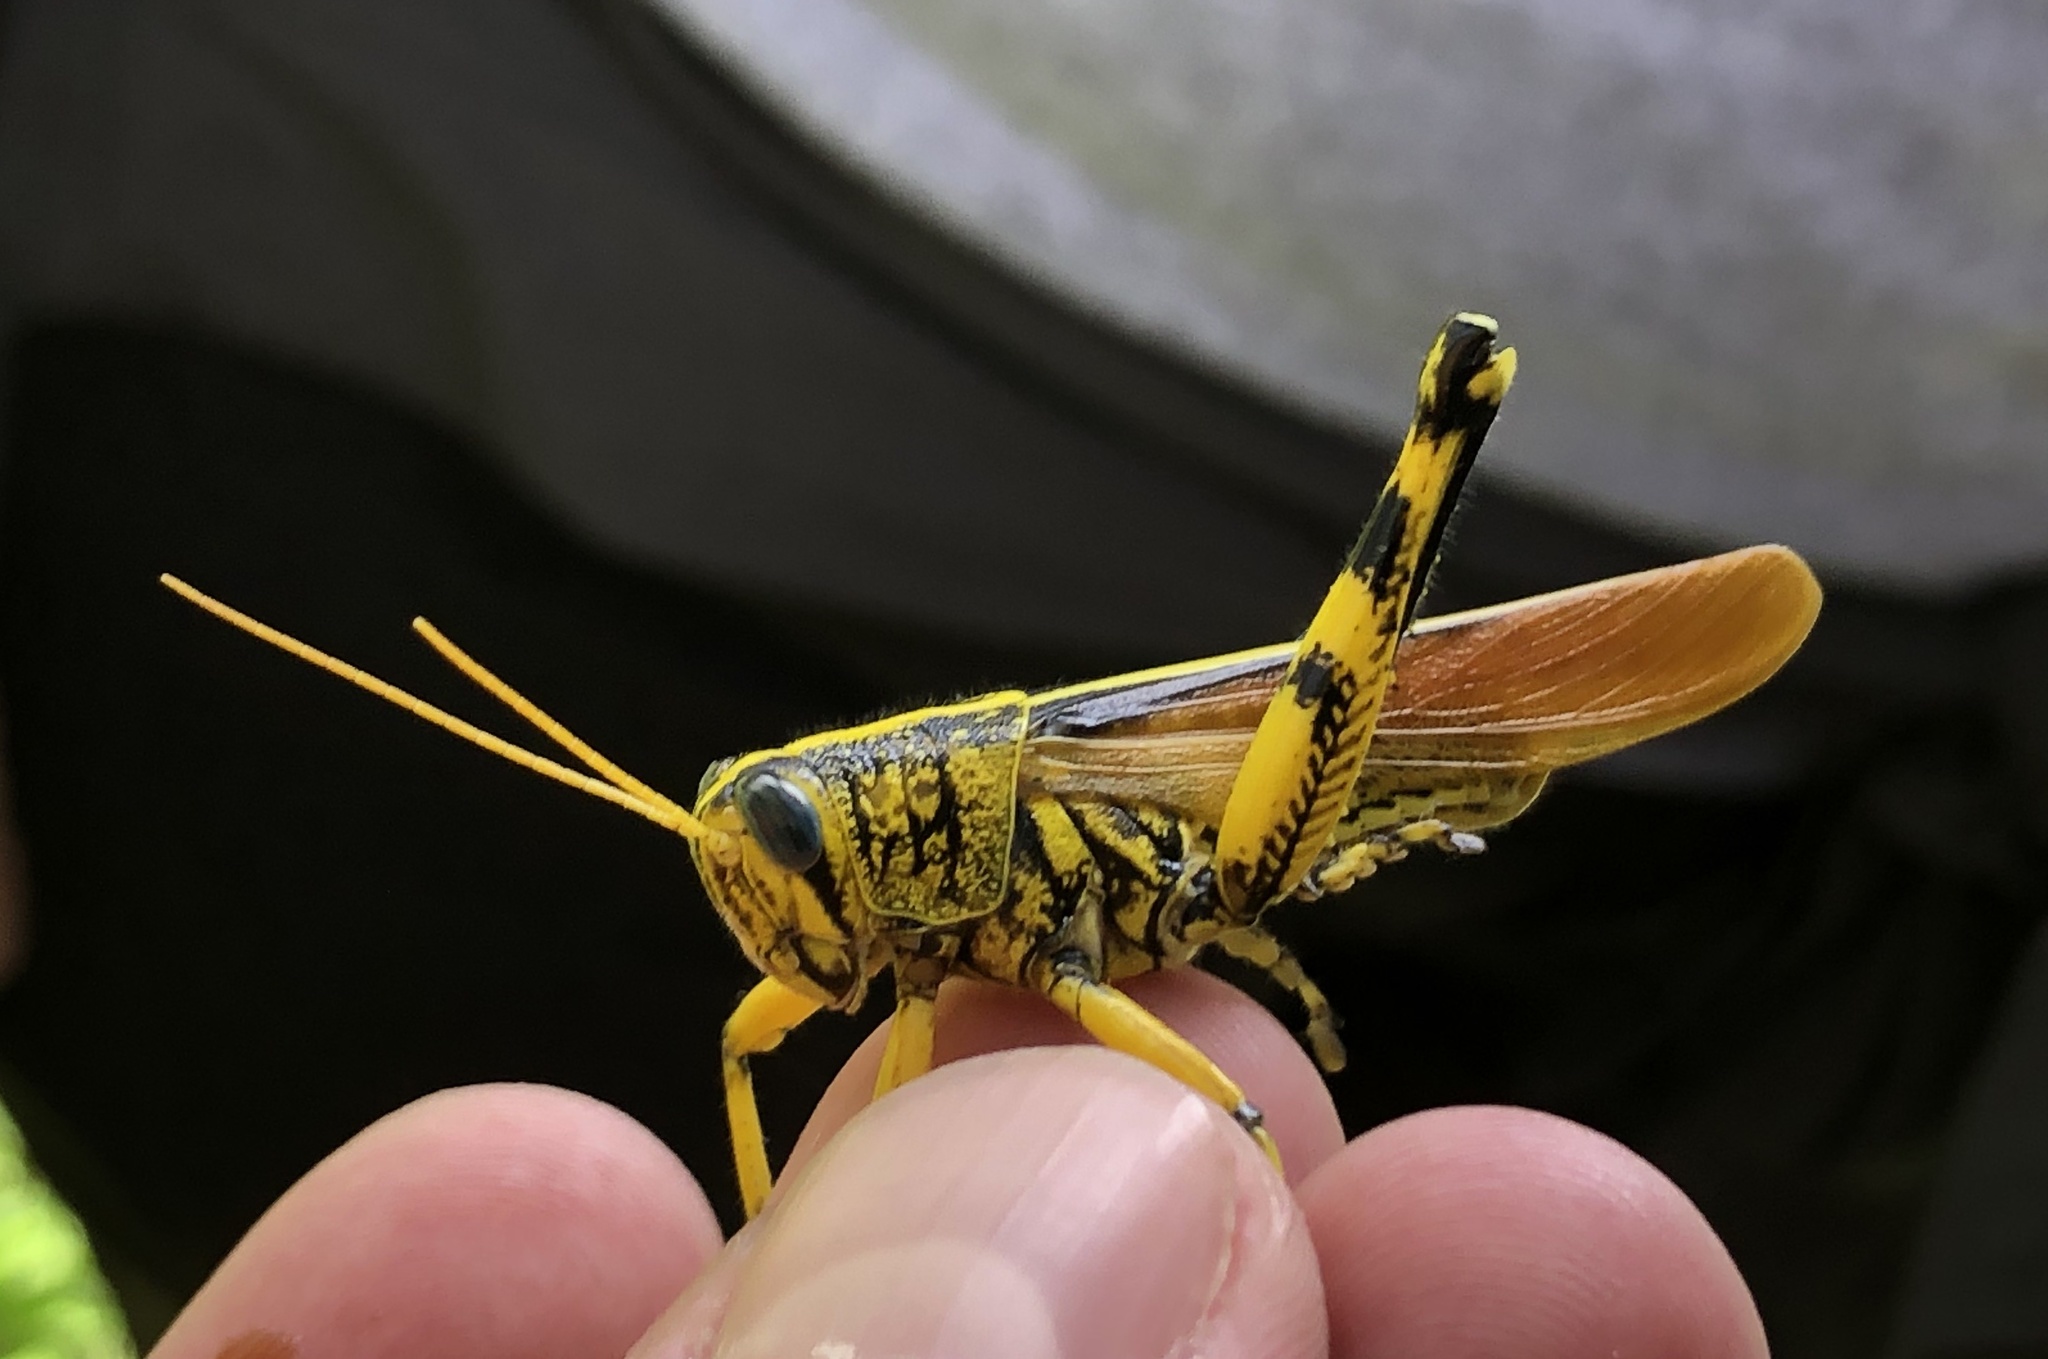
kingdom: Animalia
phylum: Arthropoda
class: Insecta
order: Orthoptera
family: Acrididae
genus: Schistocerca
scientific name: Schistocerca lineata
